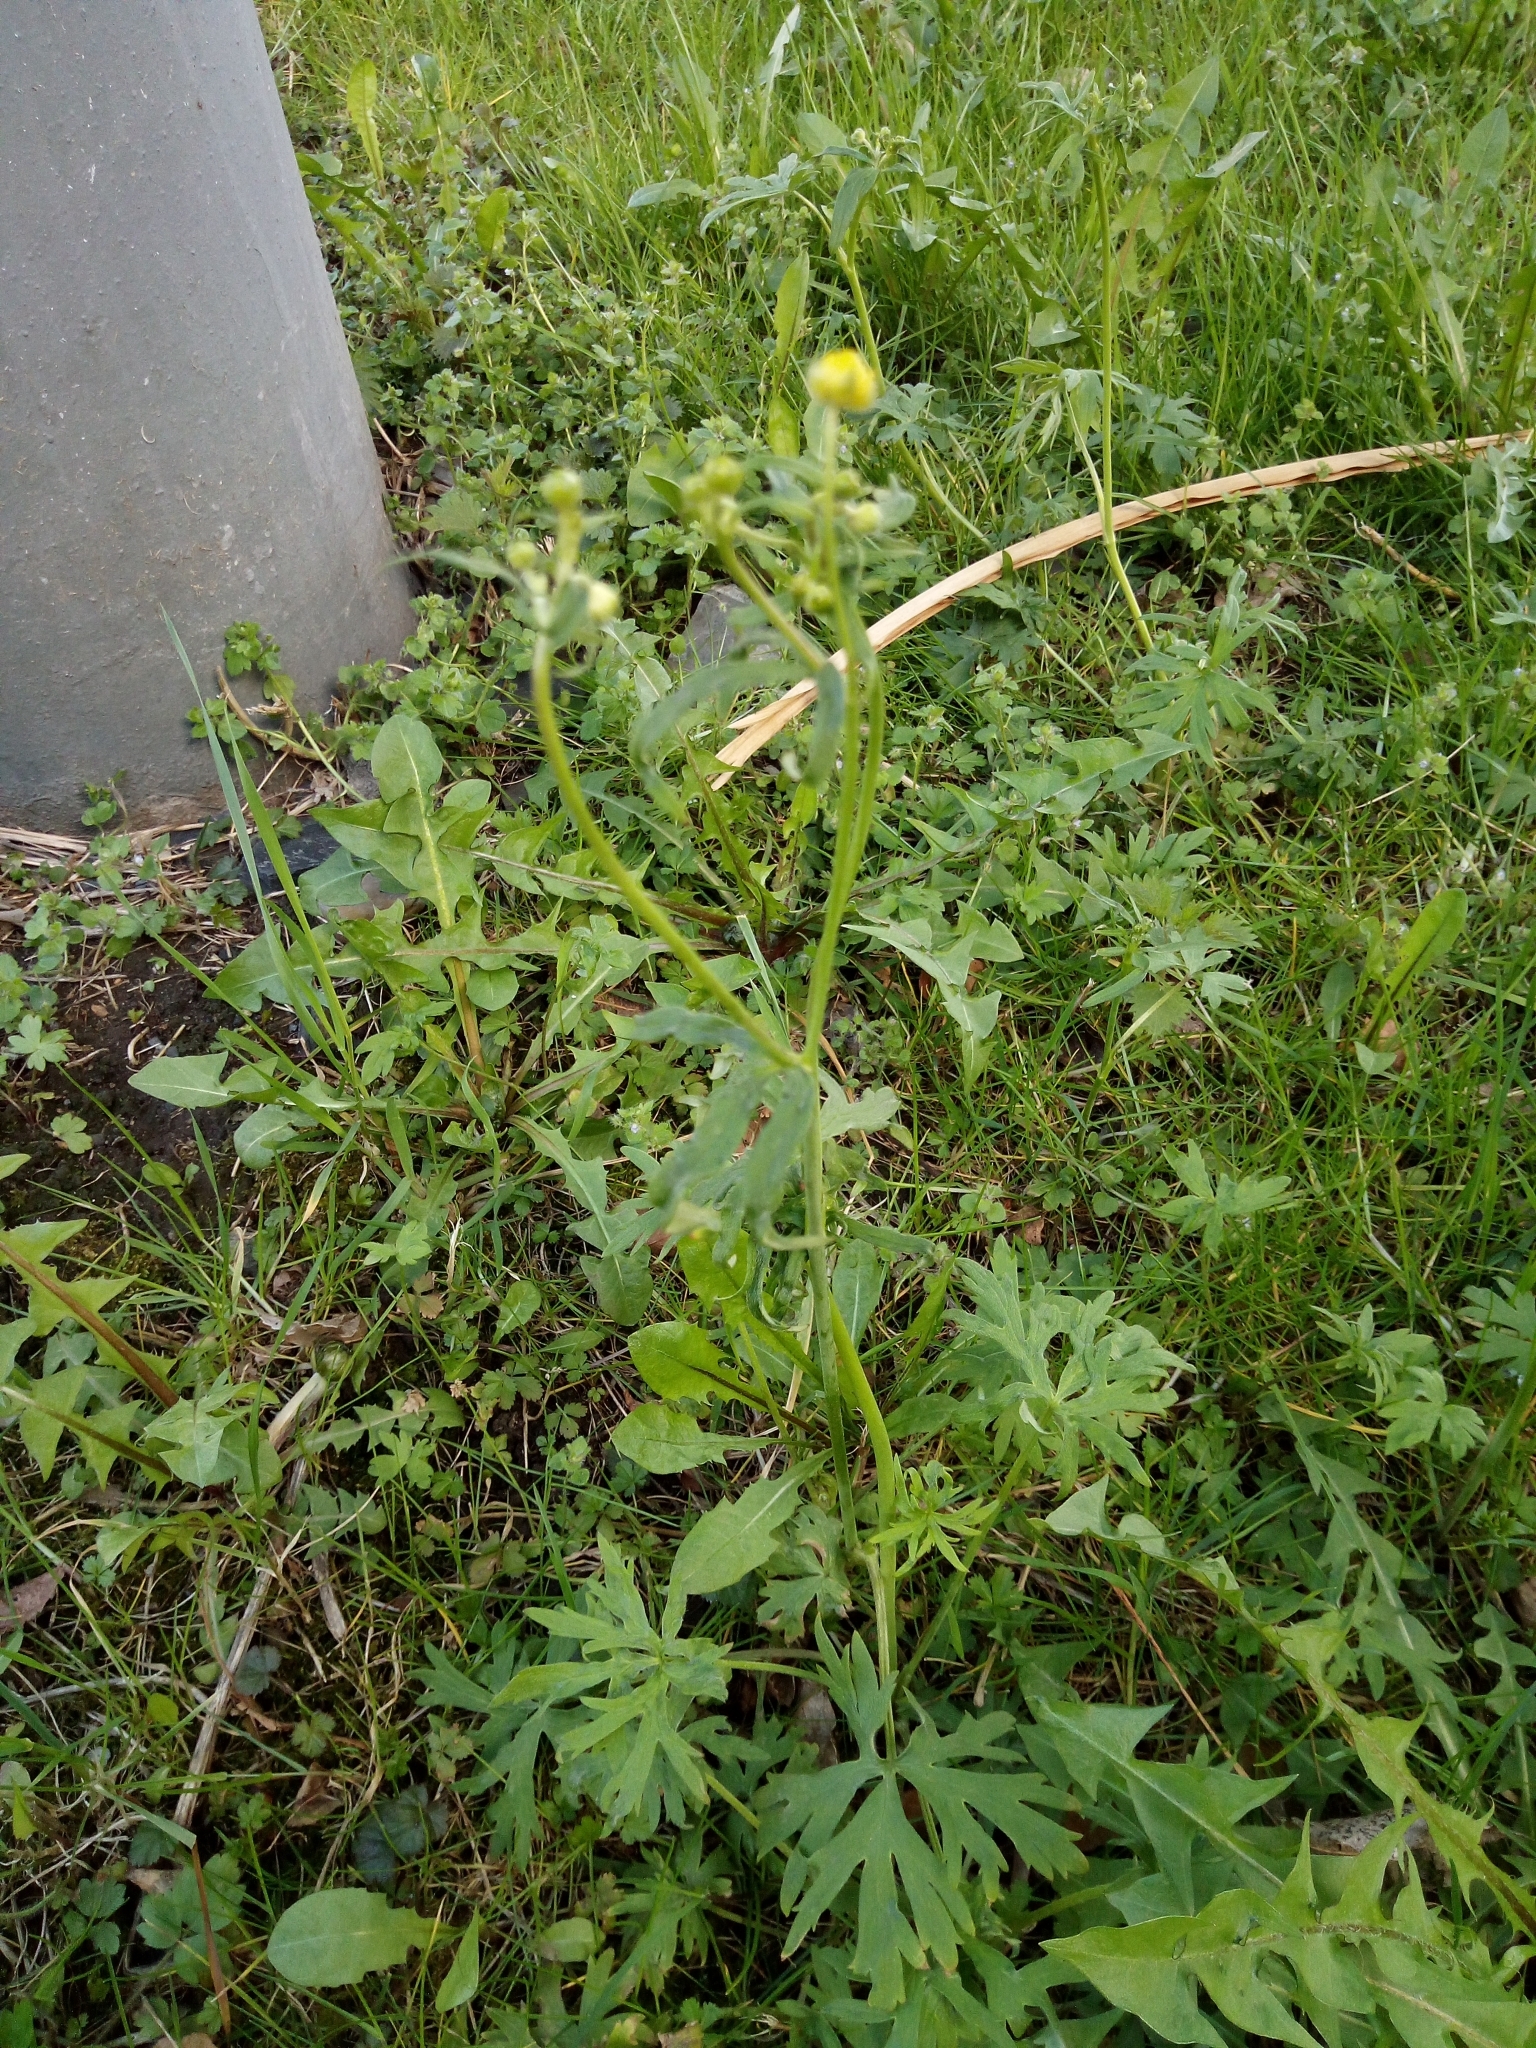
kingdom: Plantae
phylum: Tracheophyta
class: Magnoliopsida
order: Ranunculales
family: Ranunculaceae
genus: Ranunculus
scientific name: Ranunculus acris
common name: Meadow buttercup
